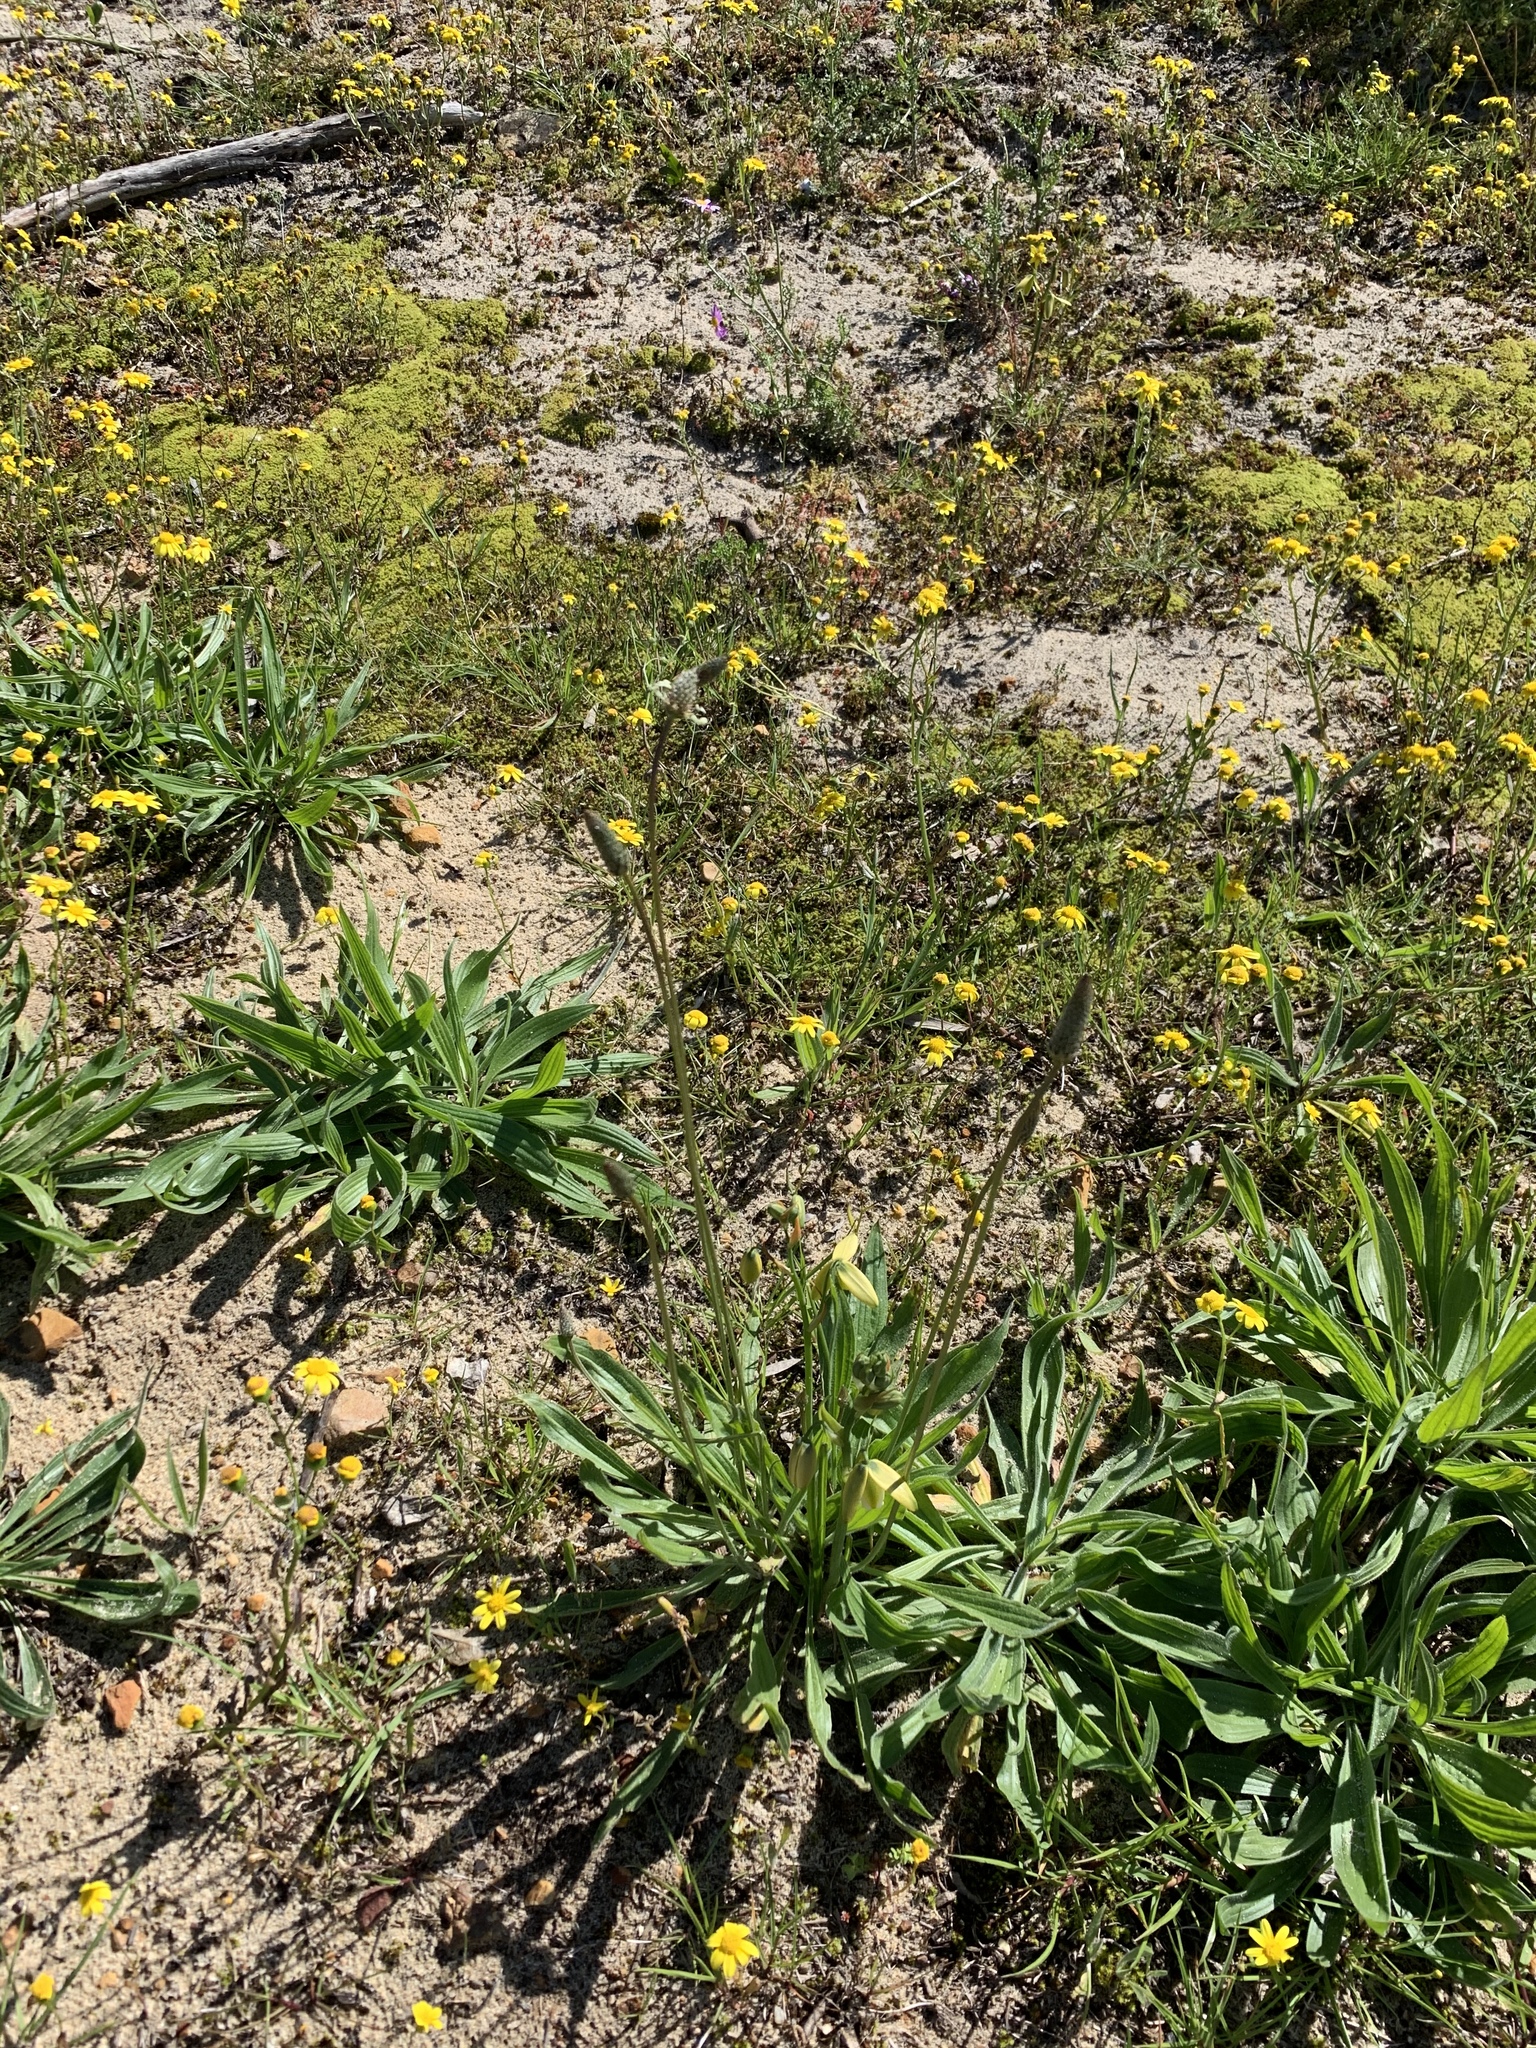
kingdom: Plantae
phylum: Tracheophyta
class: Magnoliopsida
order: Lamiales
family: Plantaginaceae
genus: Plantago
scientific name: Plantago lanceolata
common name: Ribwort plantain
